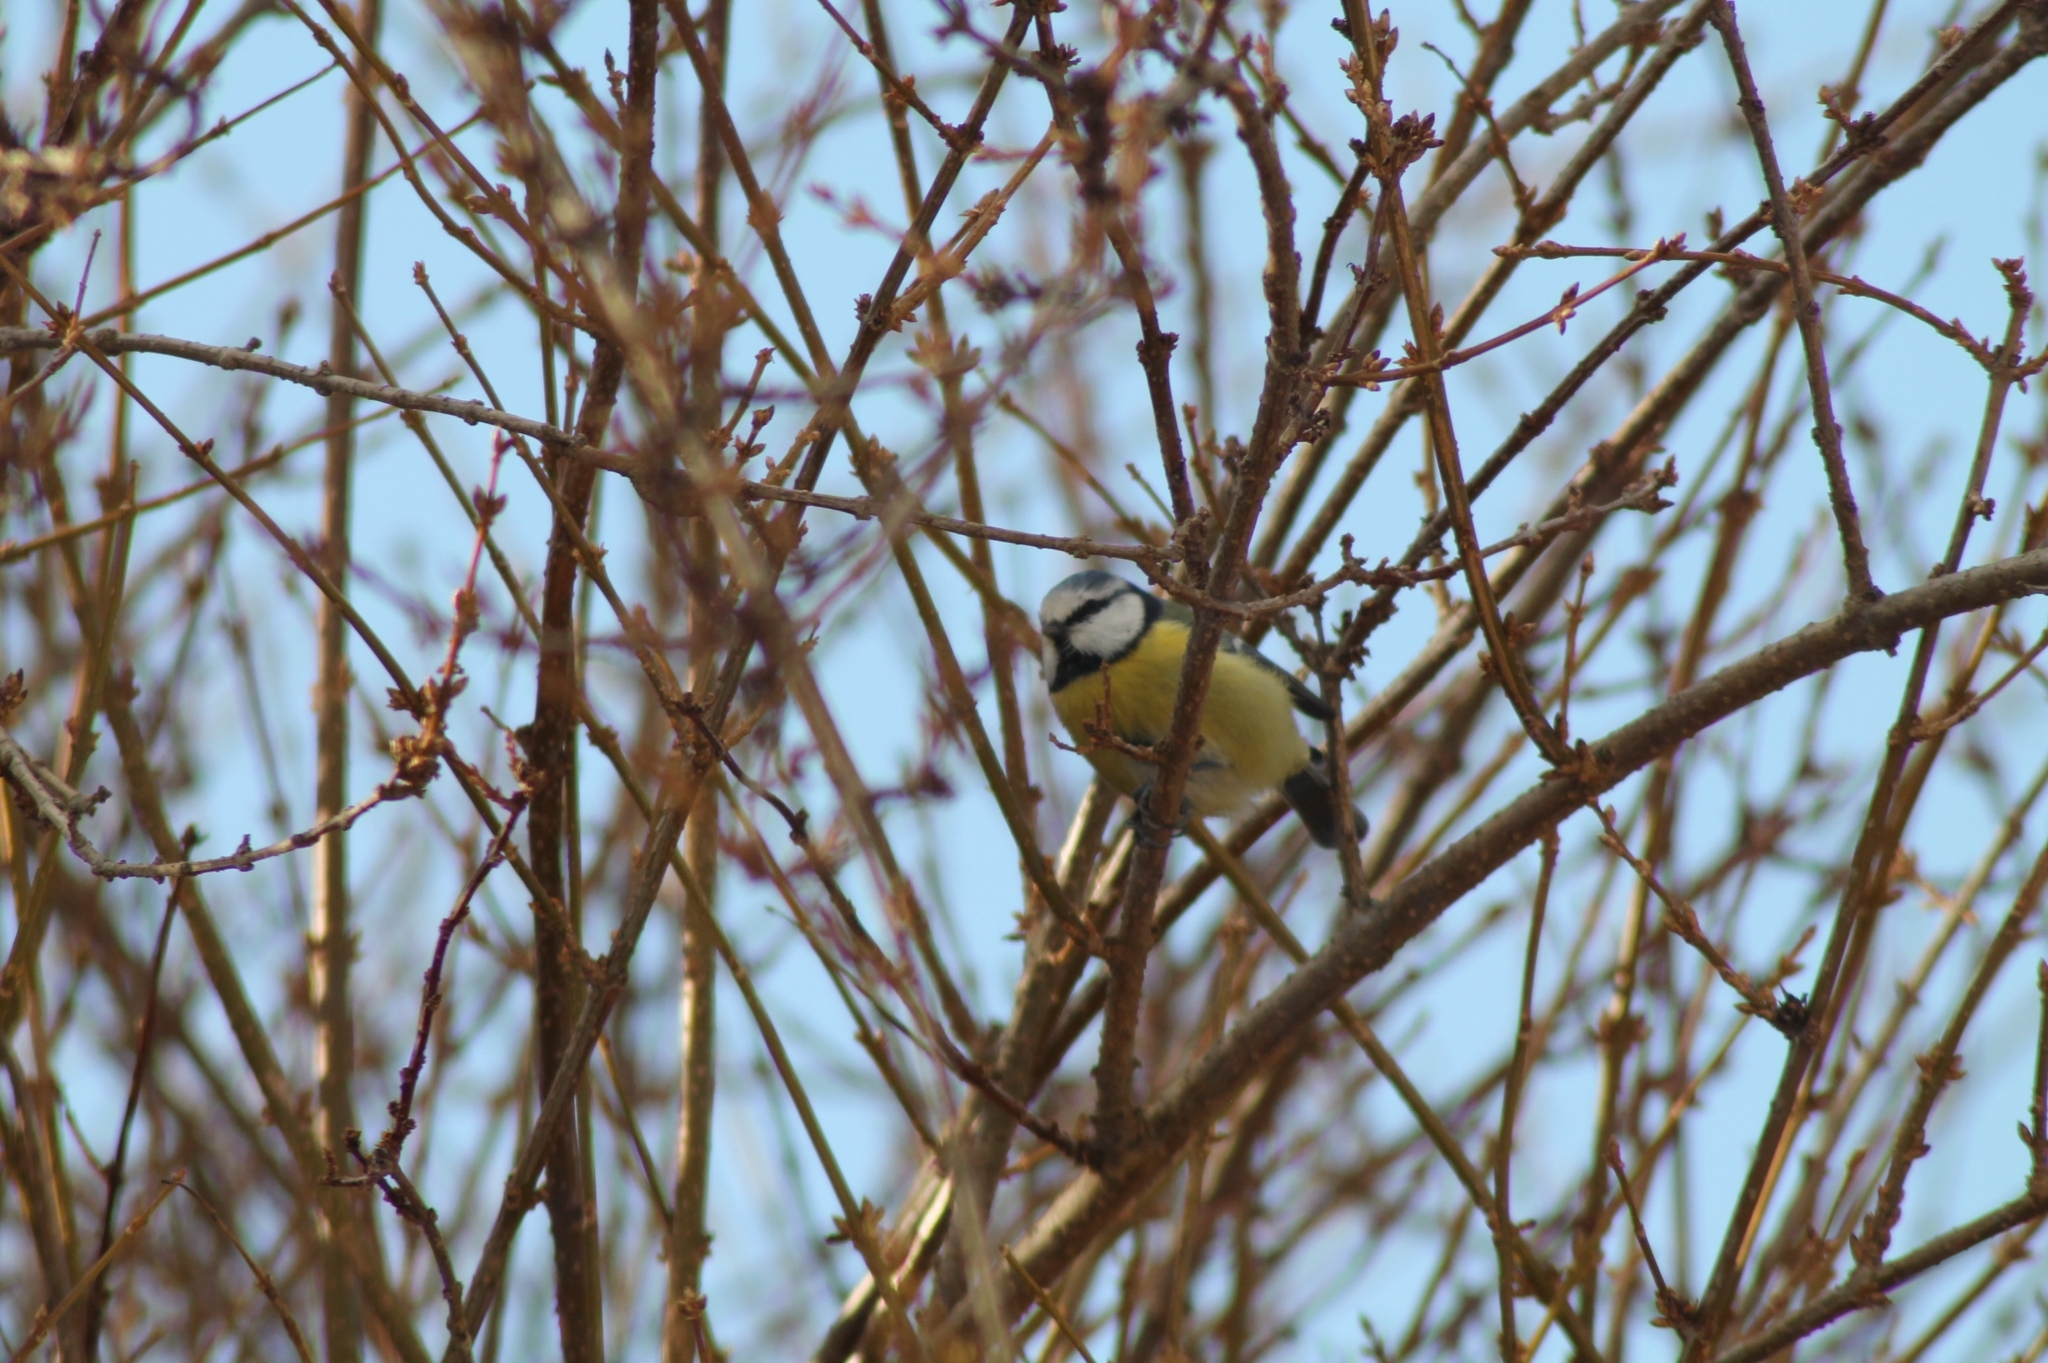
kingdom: Animalia
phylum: Chordata
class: Aves
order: Passeriformes
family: Paridae
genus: Cyanistes
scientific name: Cyanistes caeruleus
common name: Eurasian blue tit
